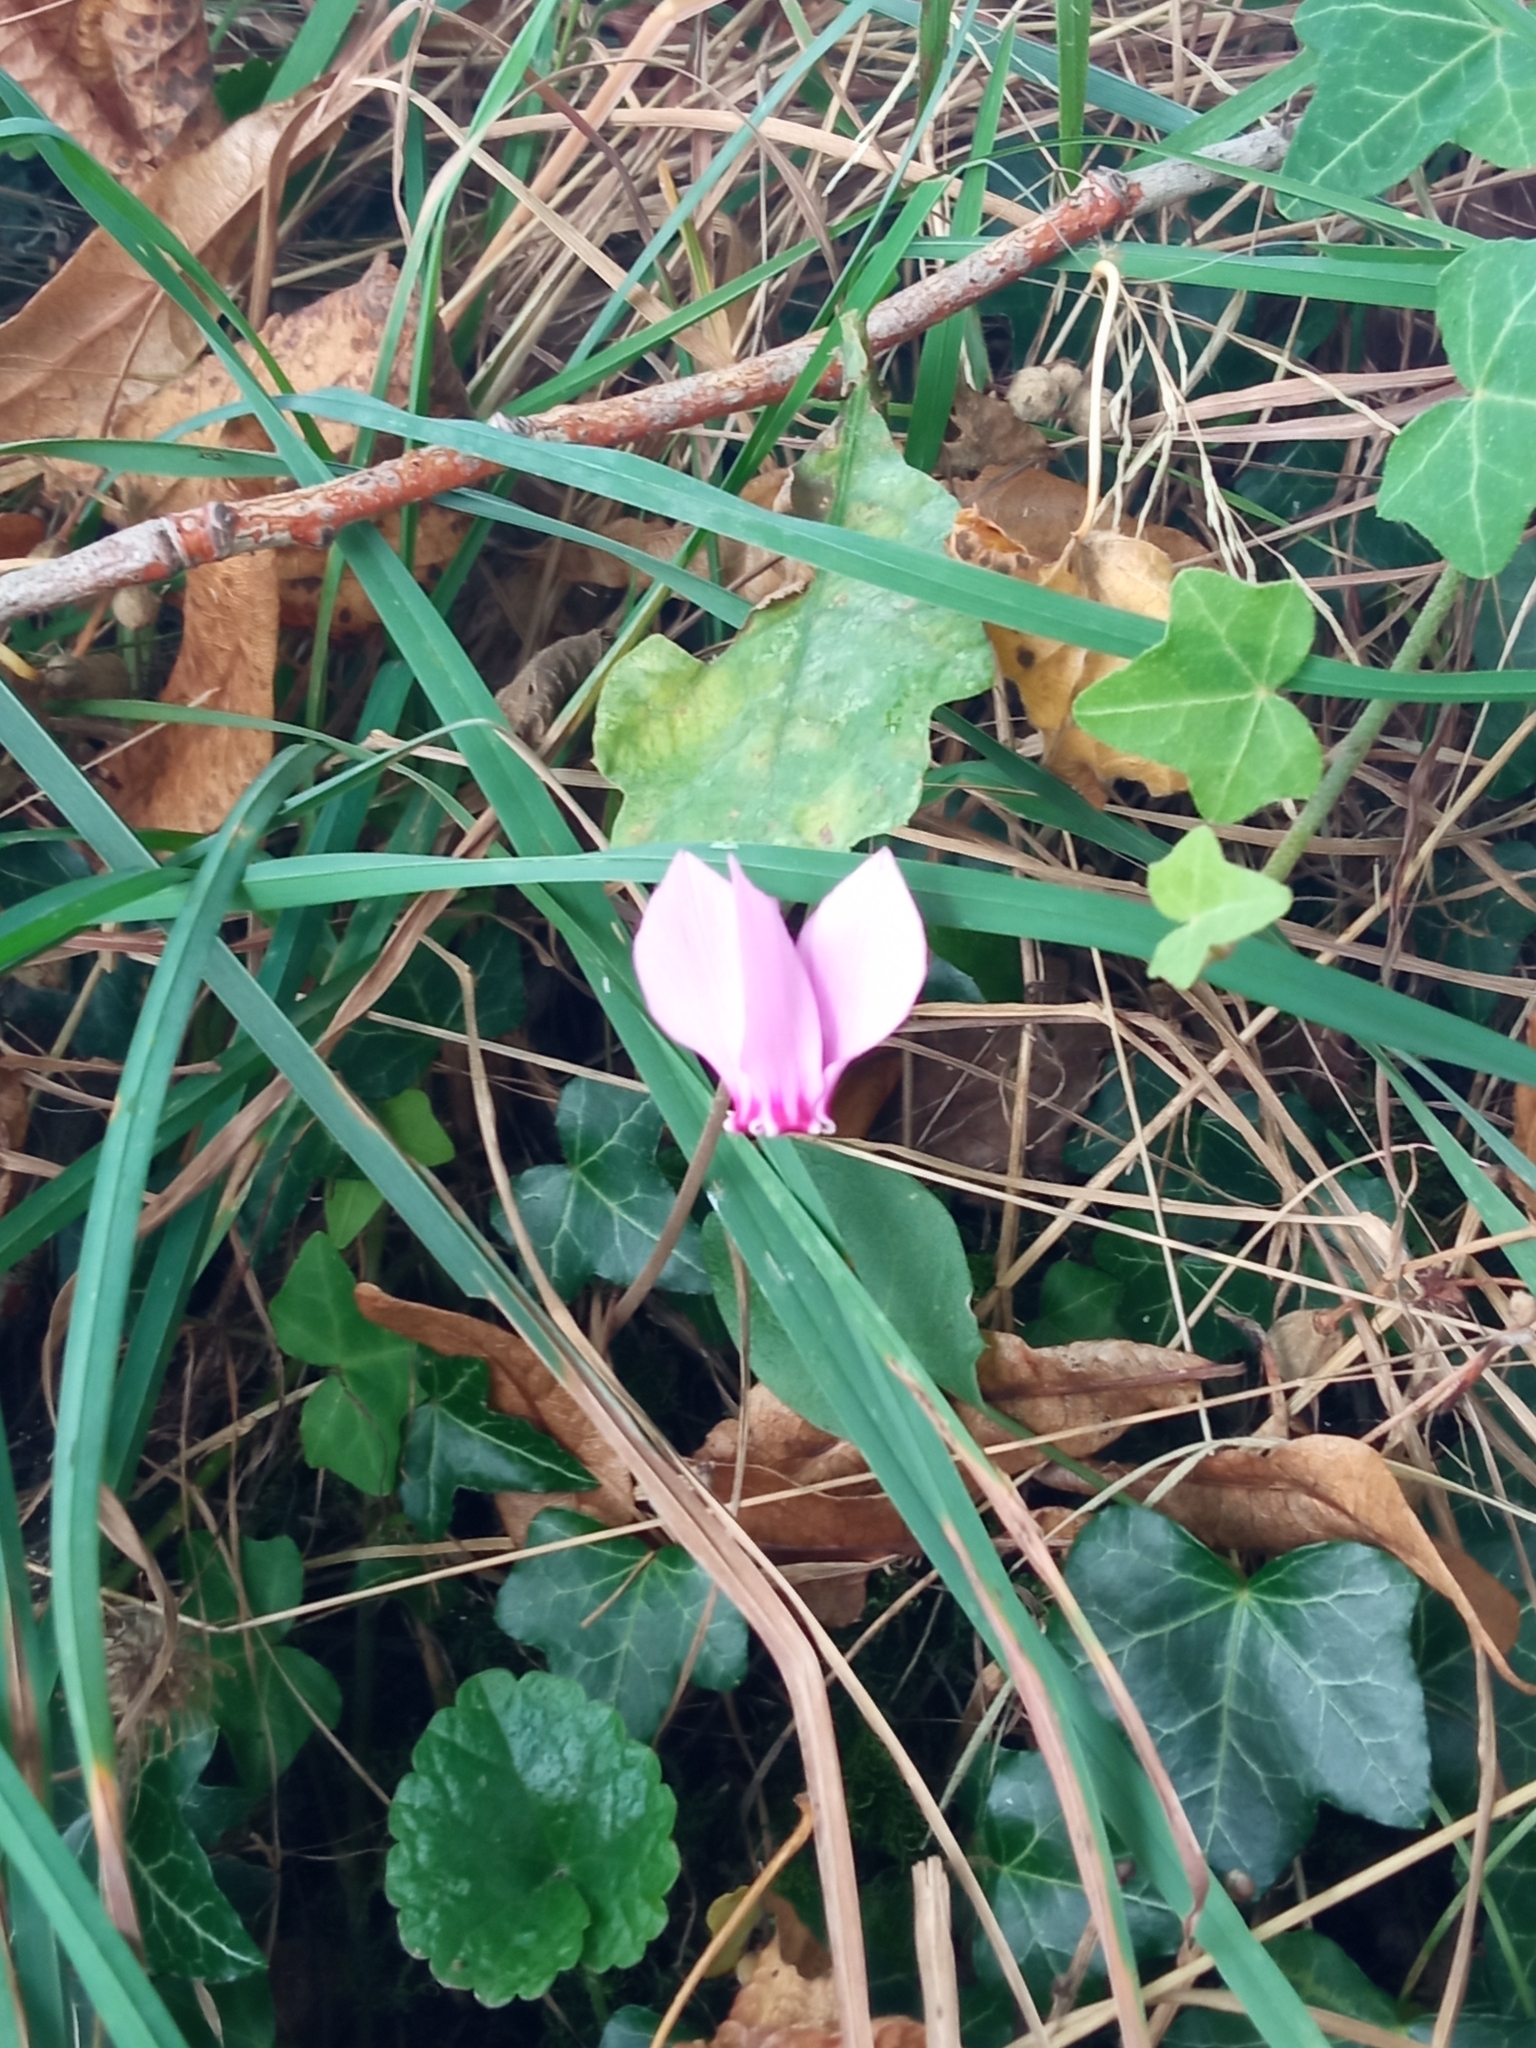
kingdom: Plantae
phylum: Tracheophyta
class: Magnoliopsida
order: Ericales
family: Primulaceae
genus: Cyclamen
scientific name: Cyclamen hederifolium
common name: Sowbread
